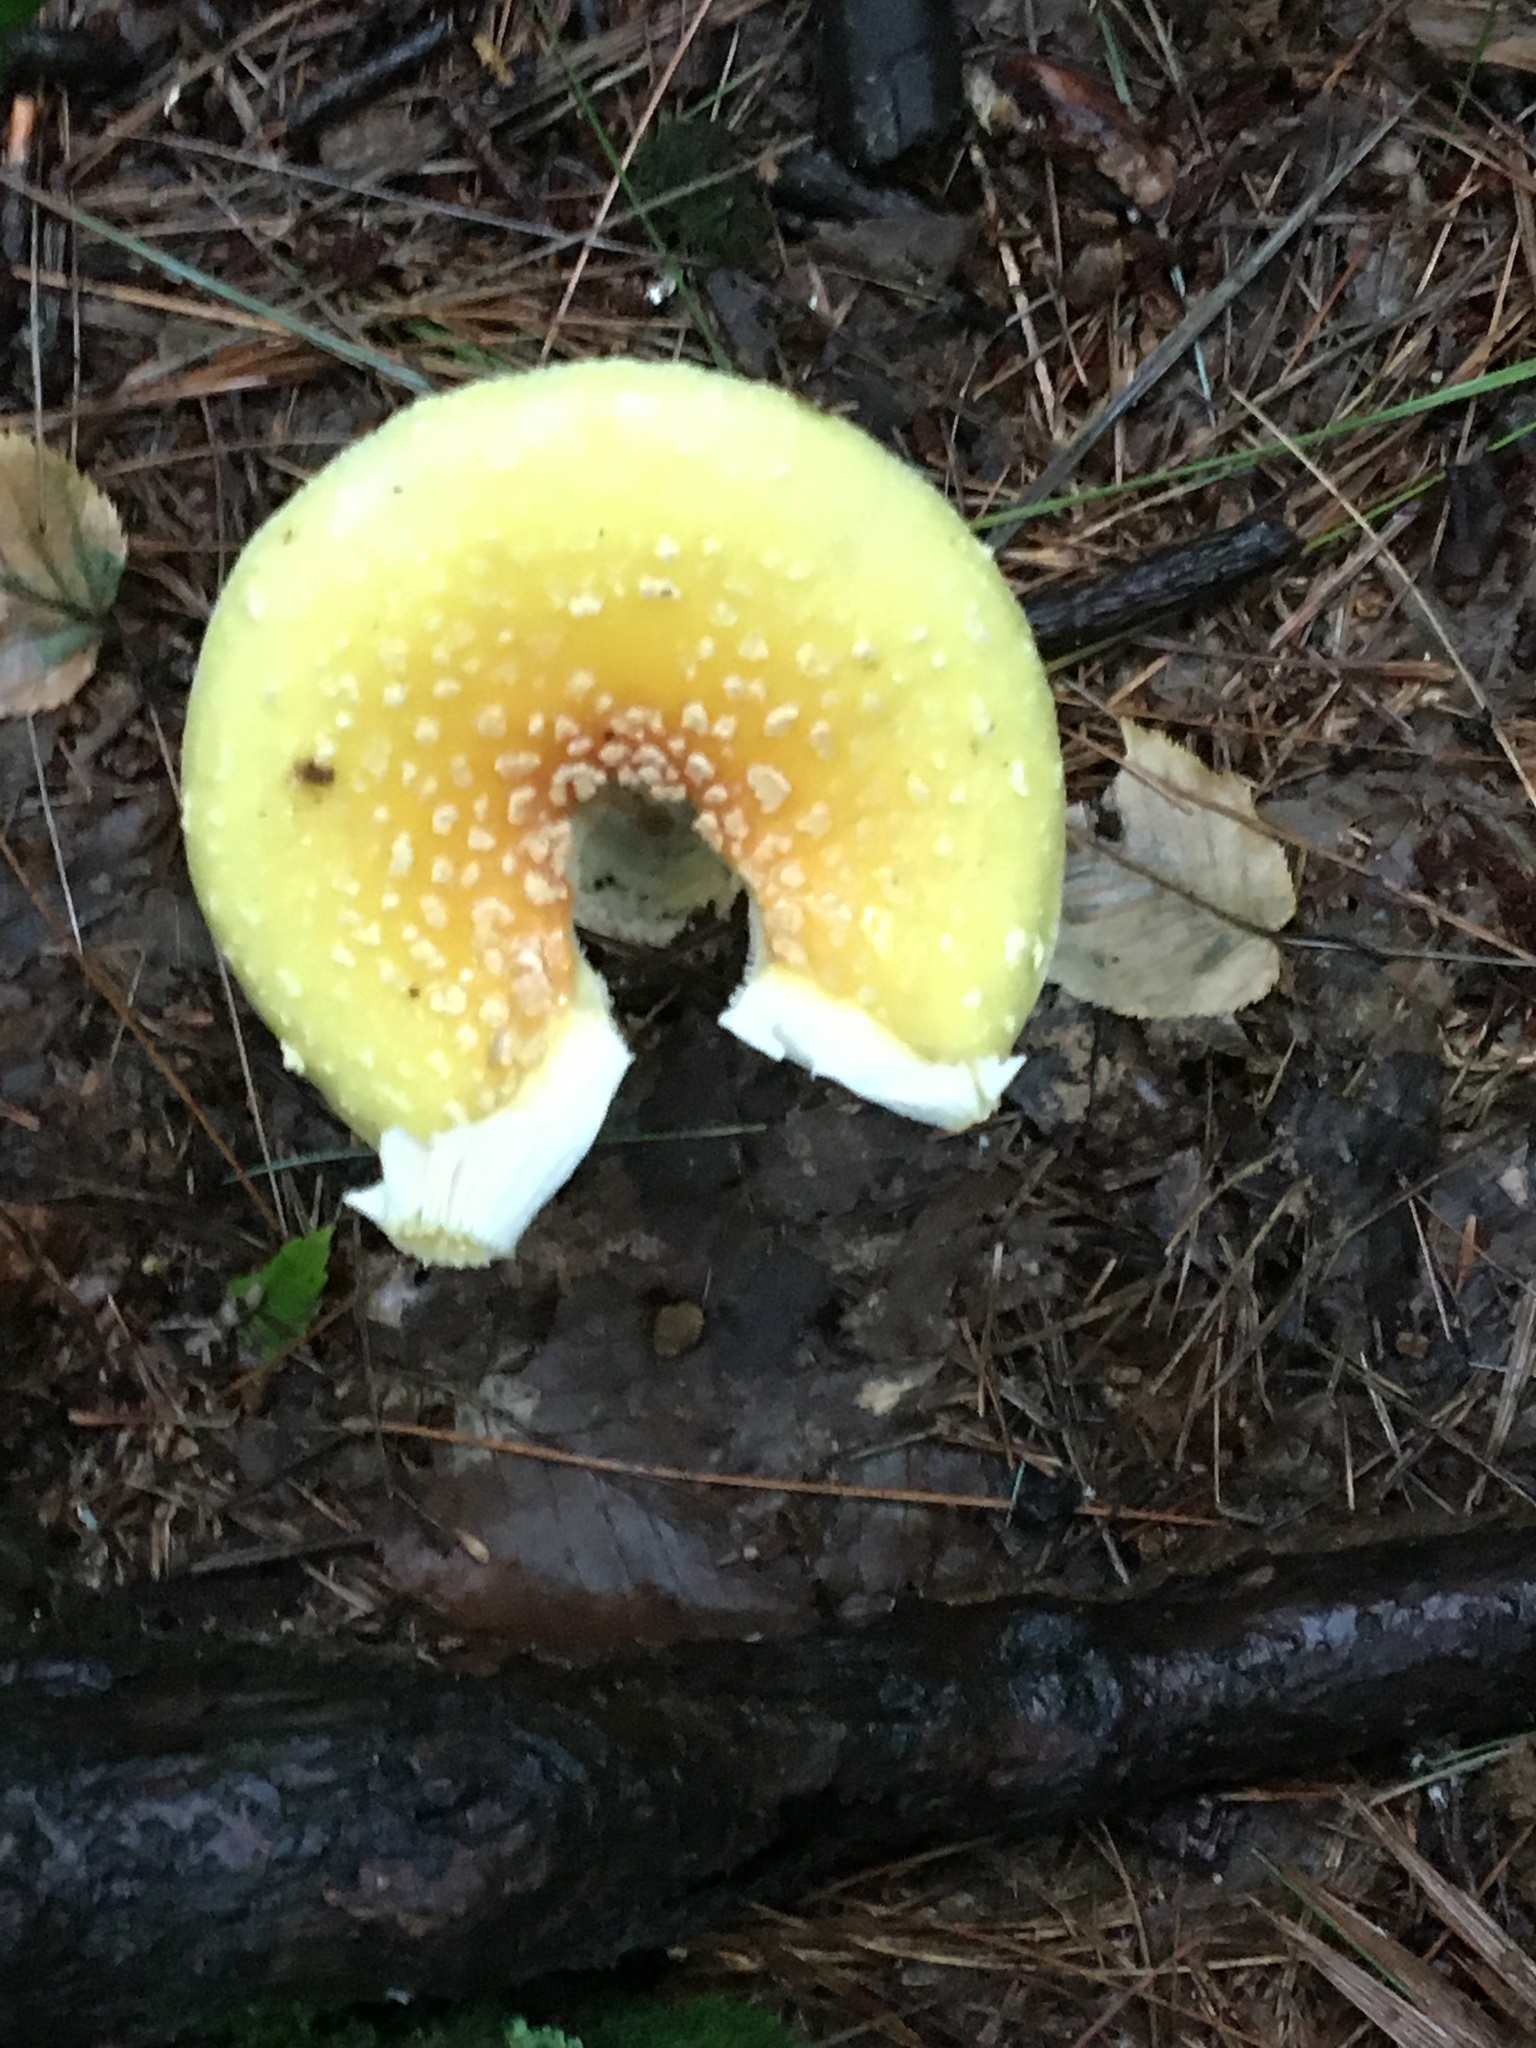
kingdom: Fungi
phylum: Basidiomycota
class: Agaricomycetes
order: Agaricales
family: Amanitaceae
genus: Amanita
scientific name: Amanita muscaria
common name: Fly agaric
